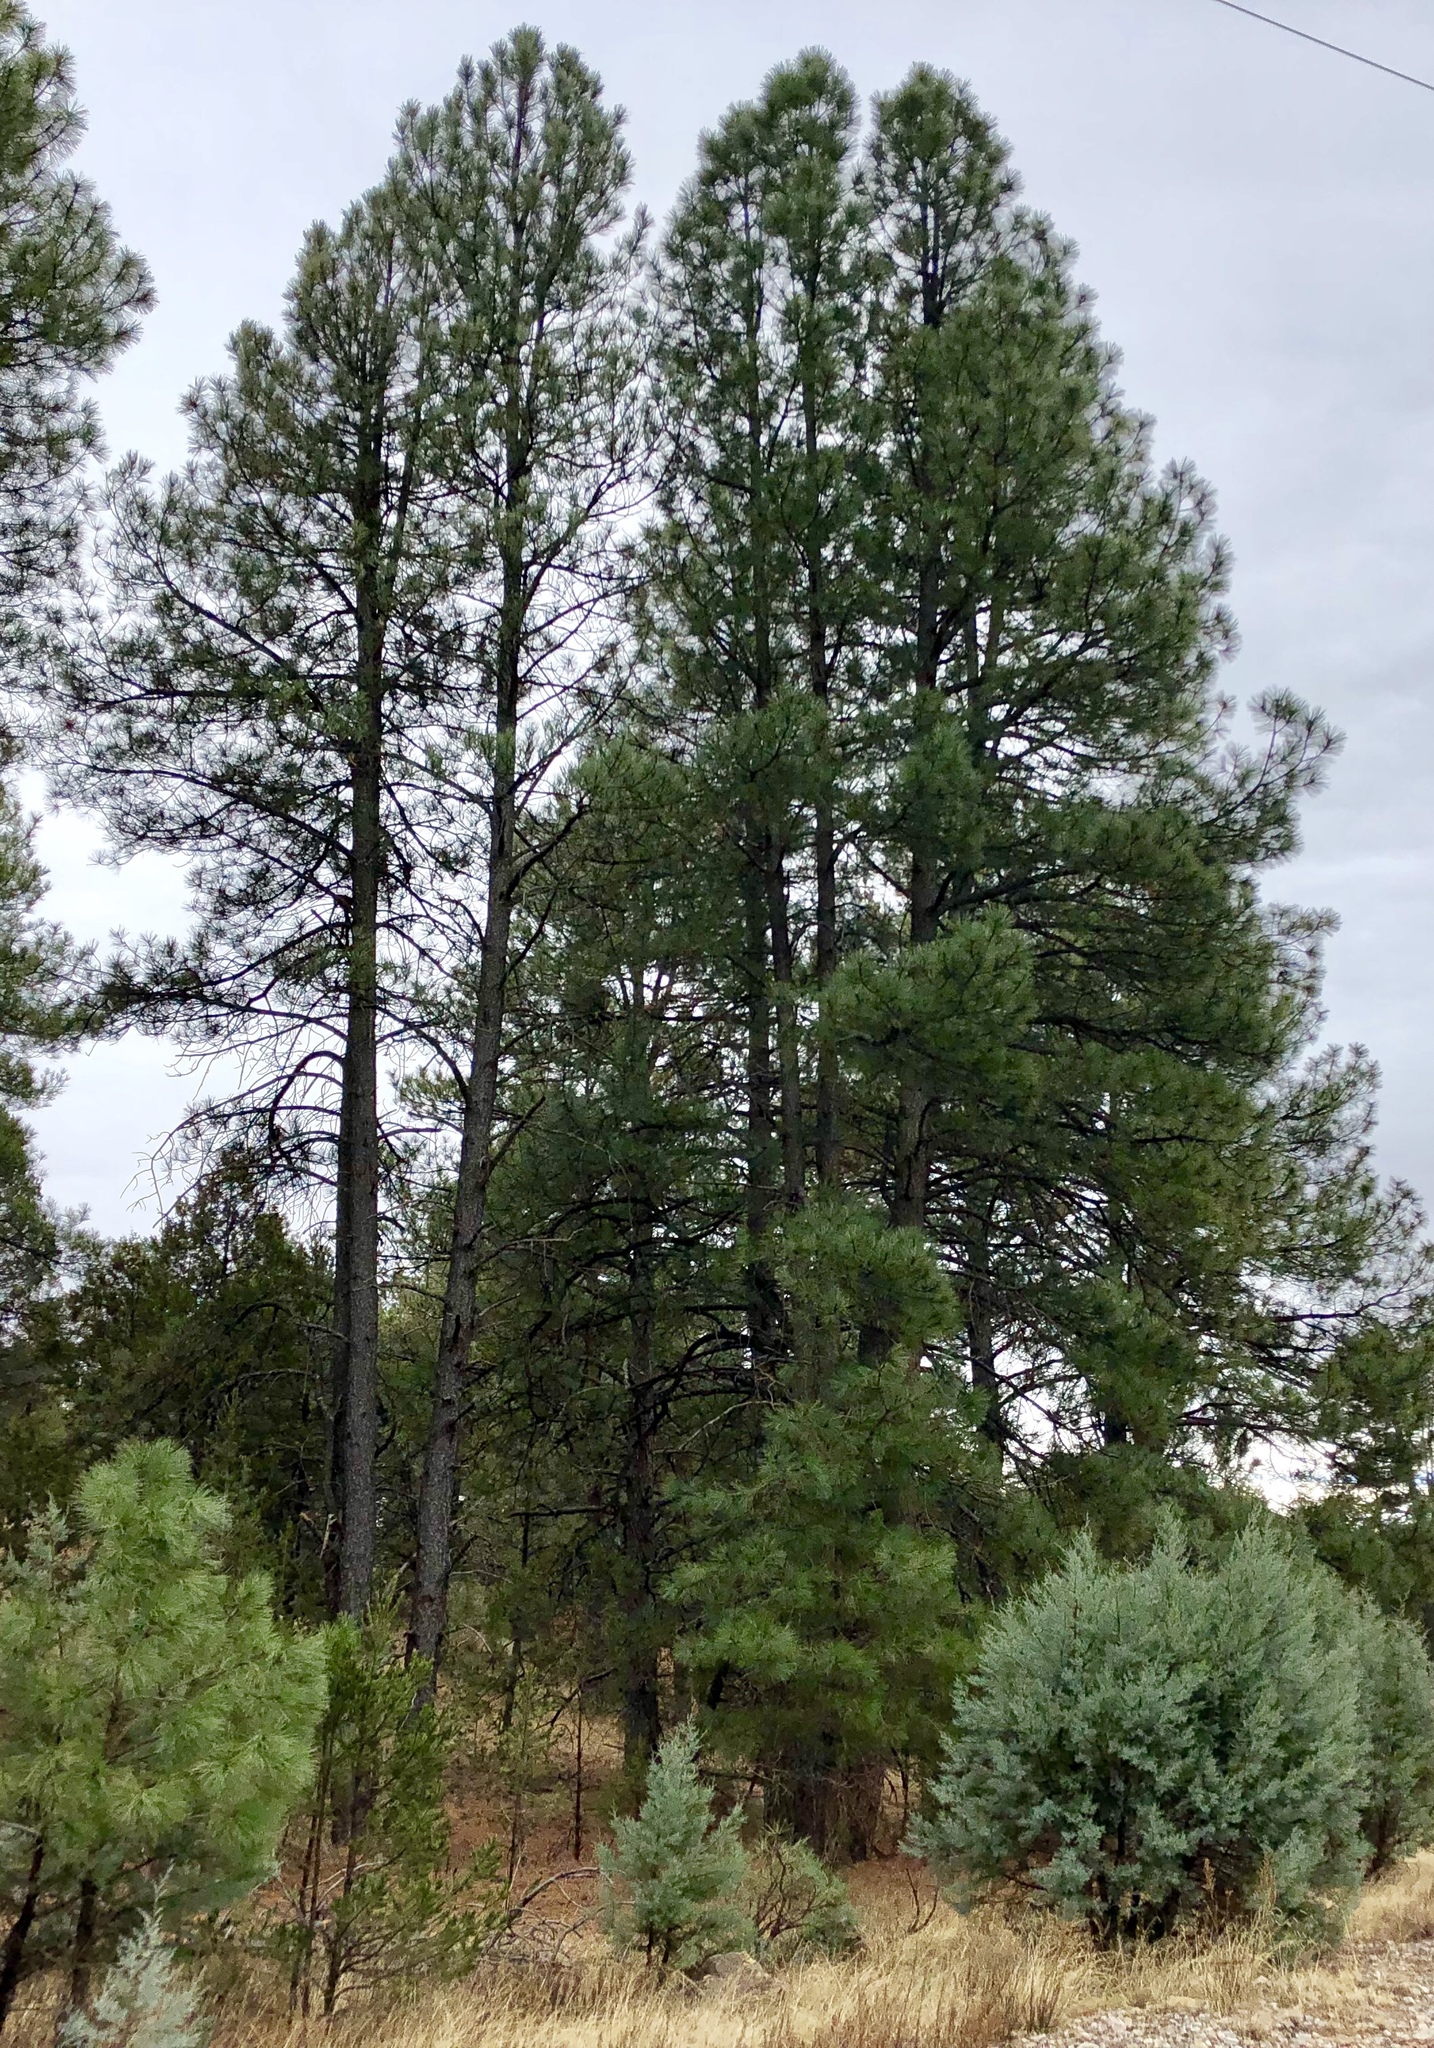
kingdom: Plantae
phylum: Tracheophyta
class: Pinopsida
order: Pinales
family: Pinaceae
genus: Pinus
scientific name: Pinus ponderosa
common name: Western yellow-pine
